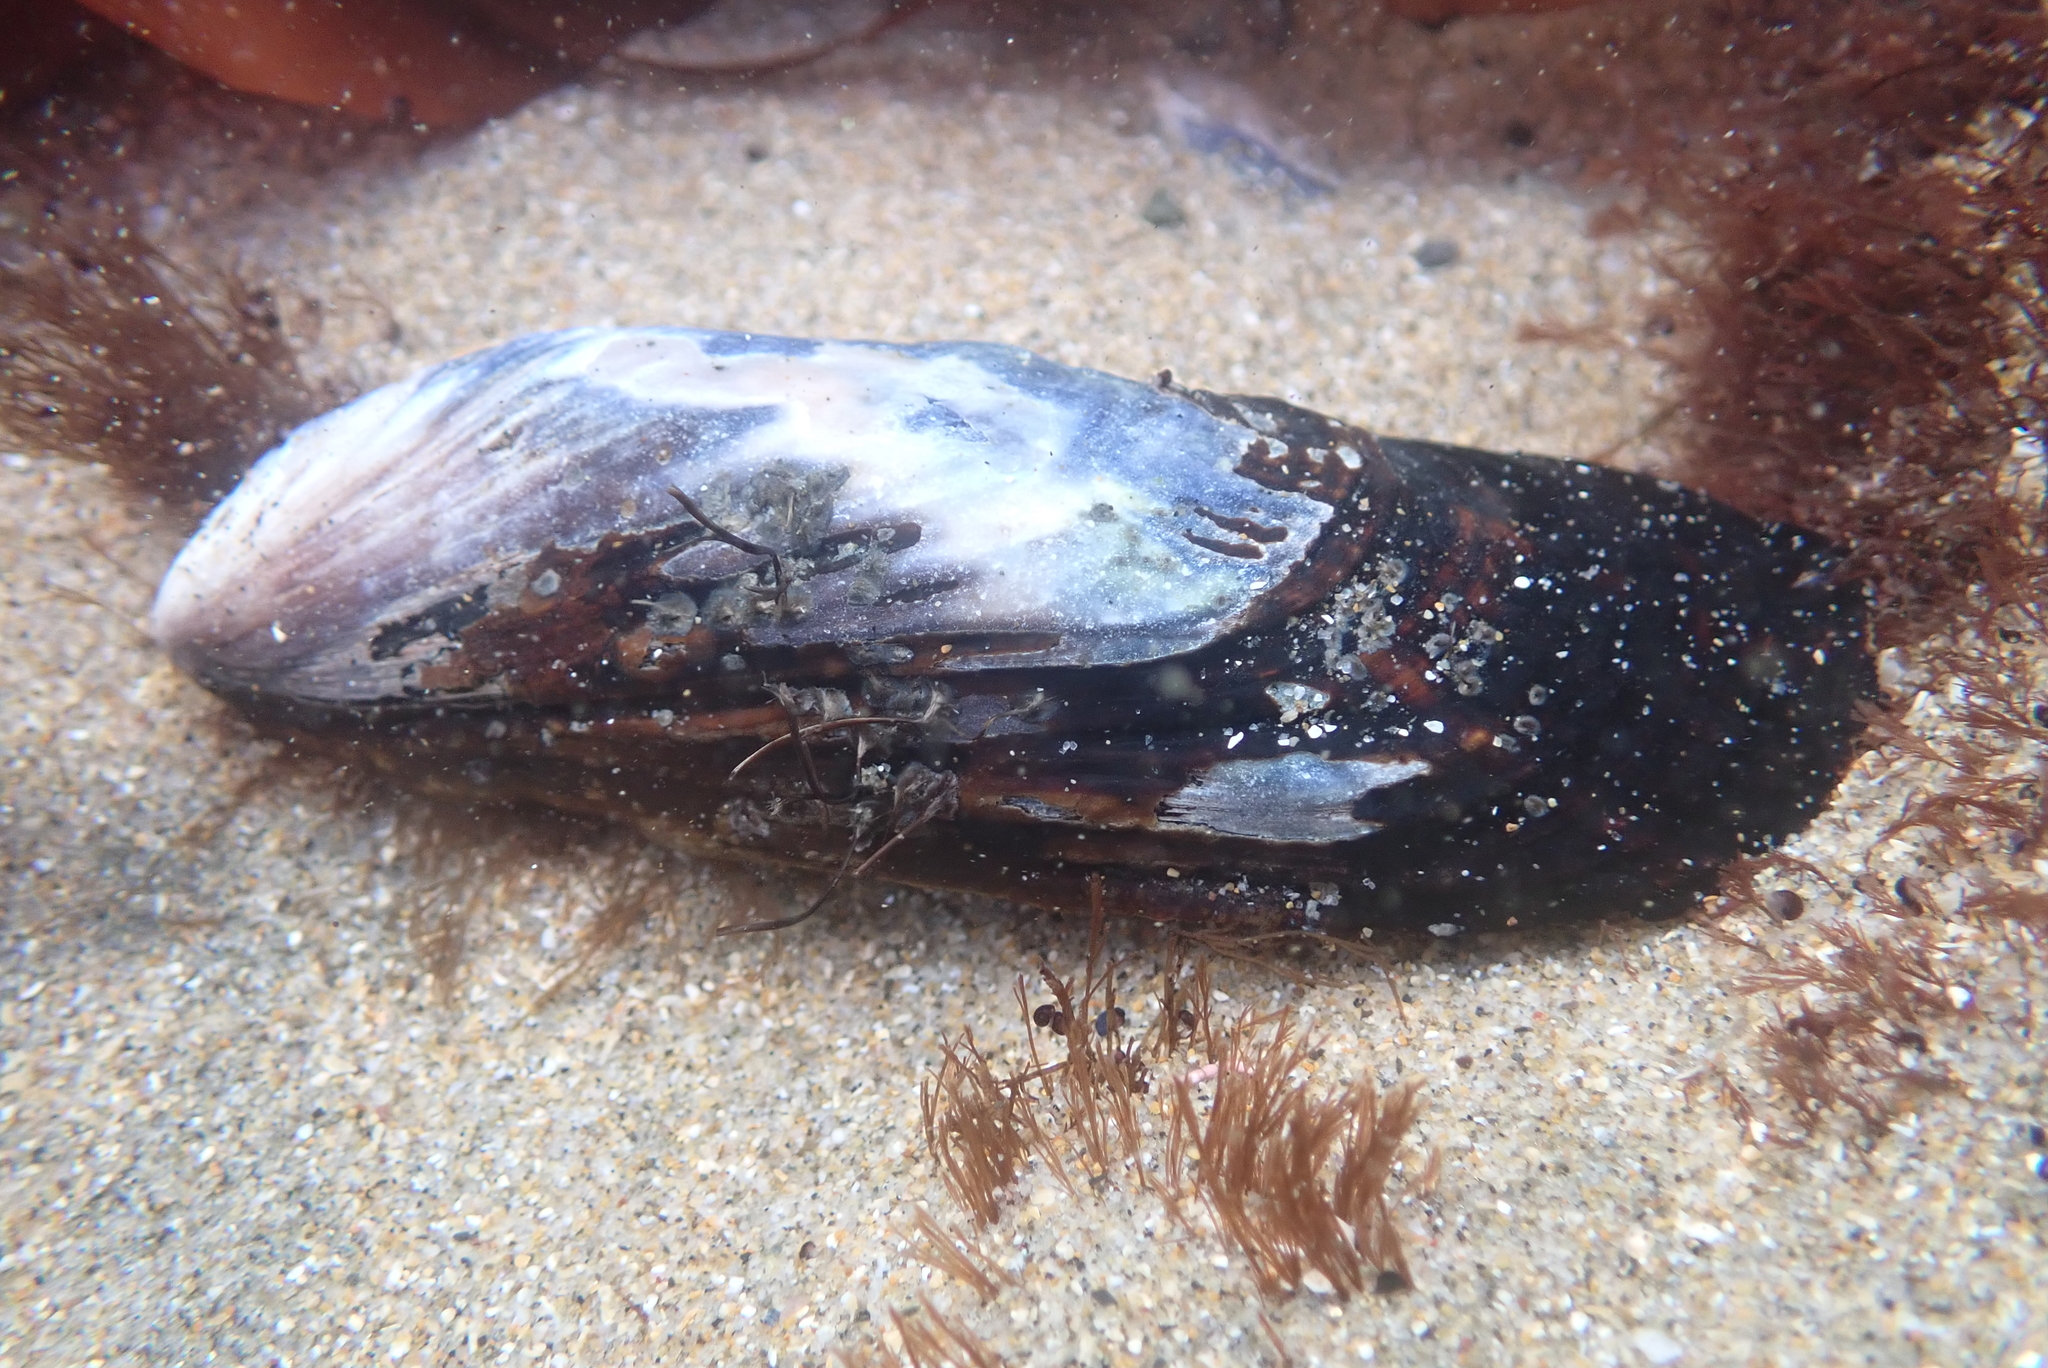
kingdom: Animalia
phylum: Mollusca
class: Bivalvia
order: Mytilida
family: Mytilidae
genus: Mytilus
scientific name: Mytilus californianus
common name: California mussel
